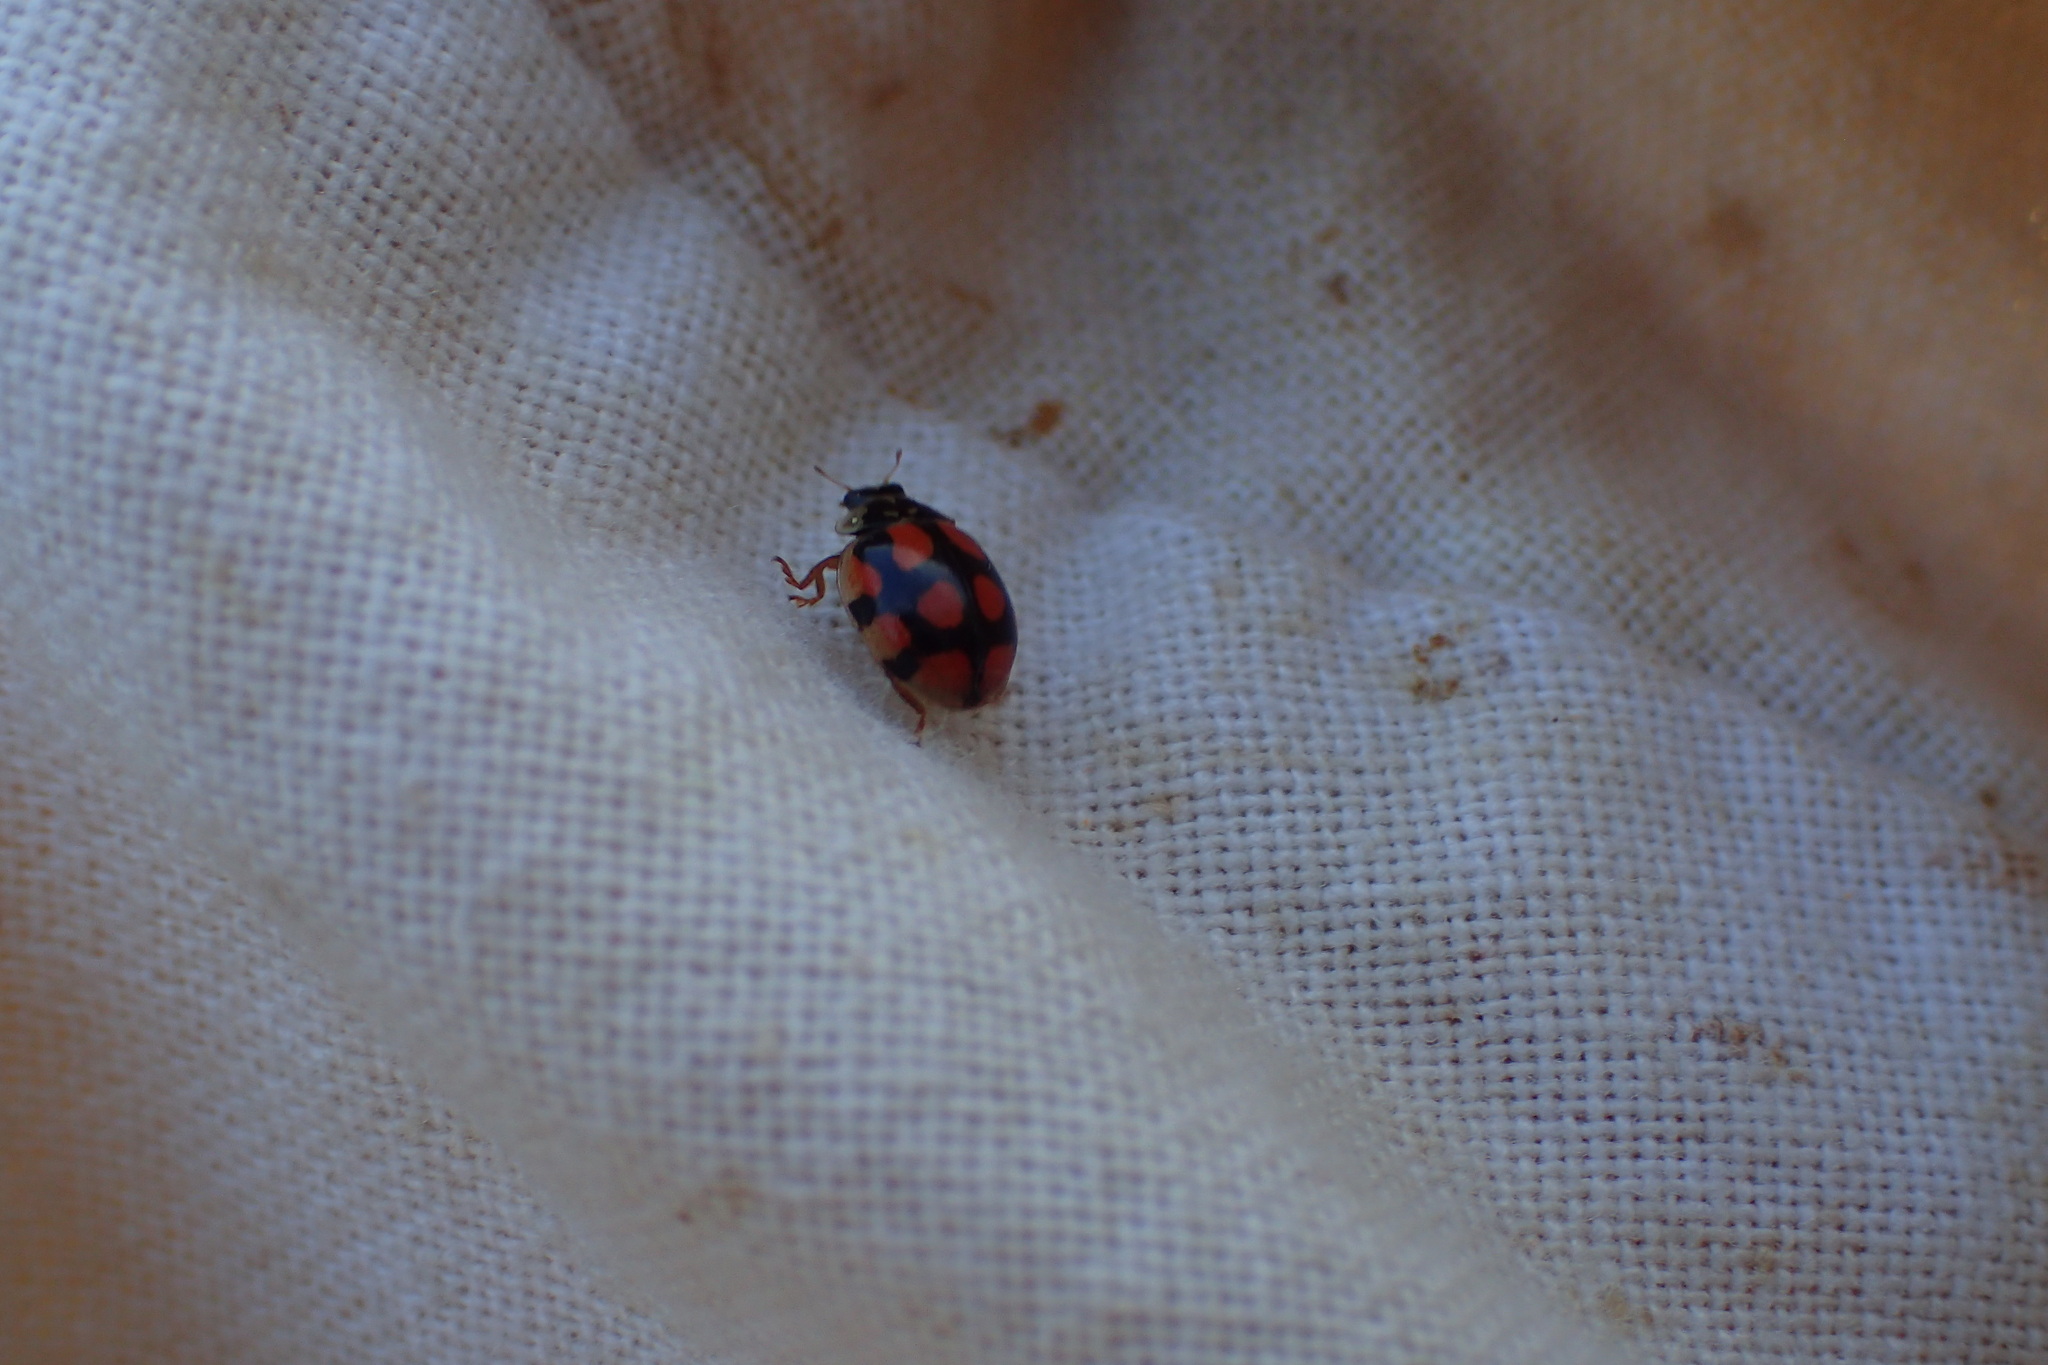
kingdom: Animalia
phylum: Arthropoda
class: Insecta
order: Coleoptera
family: Coccinellidae
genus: Adalia
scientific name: Adalia decempunctata
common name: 10-spot ladybird
